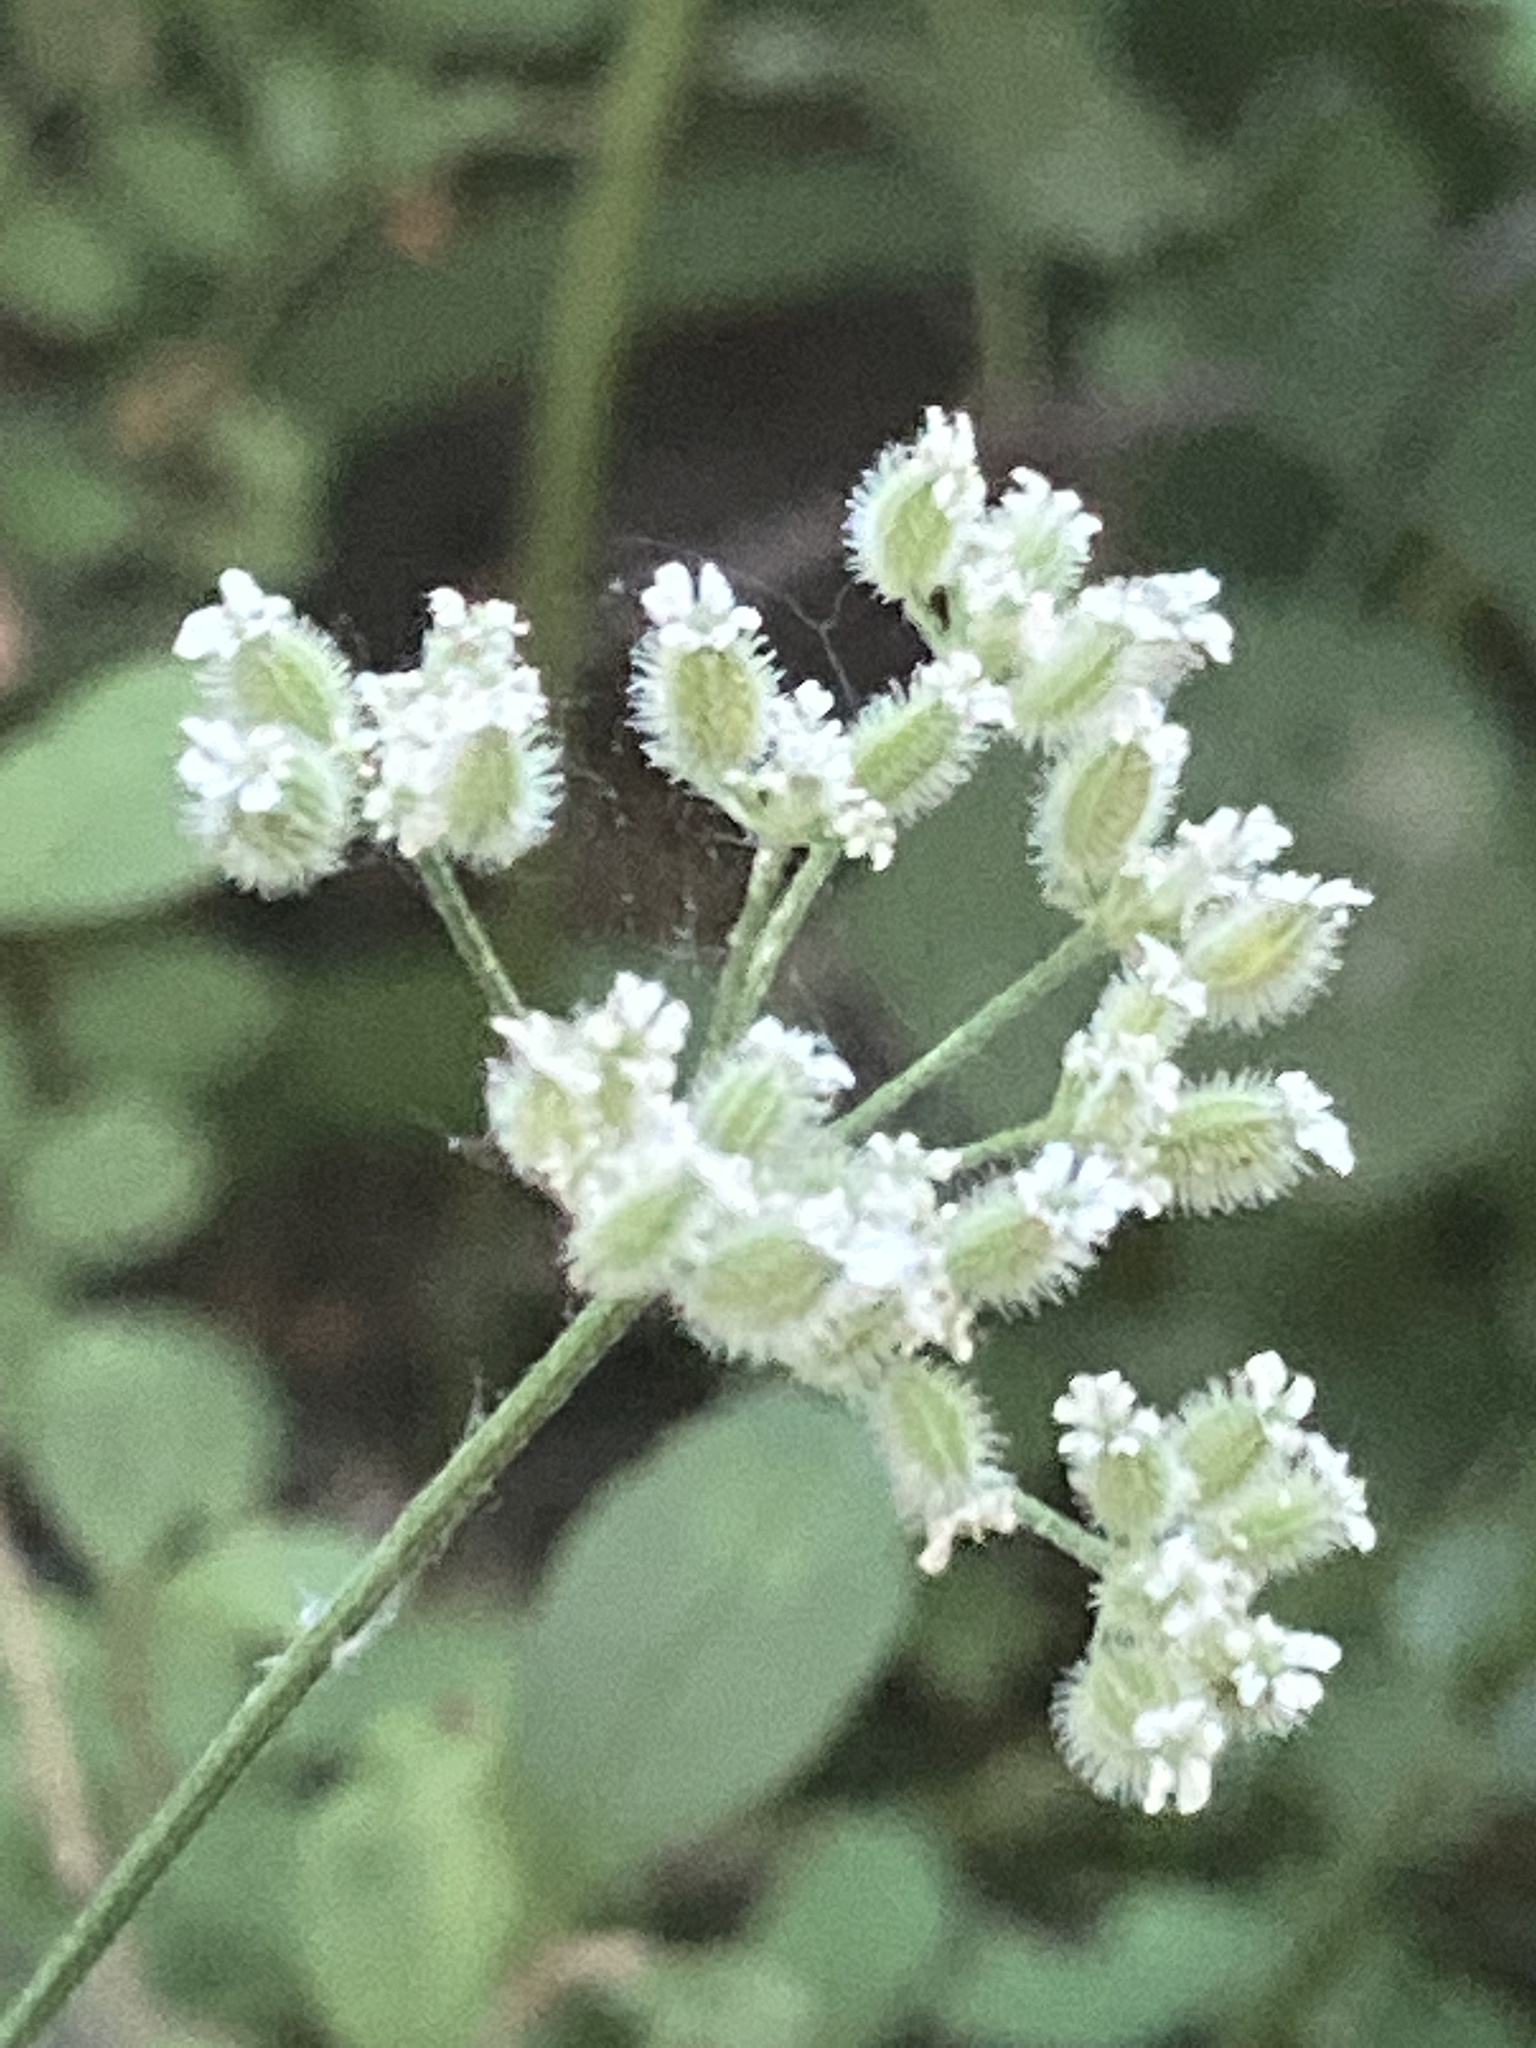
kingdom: Plantae
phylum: Tracheophyta
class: Magnoliopsida
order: Apiales
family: Apiaceae
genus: Torilis
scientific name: Torilis arvensis
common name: Spreading hedge-parsley
